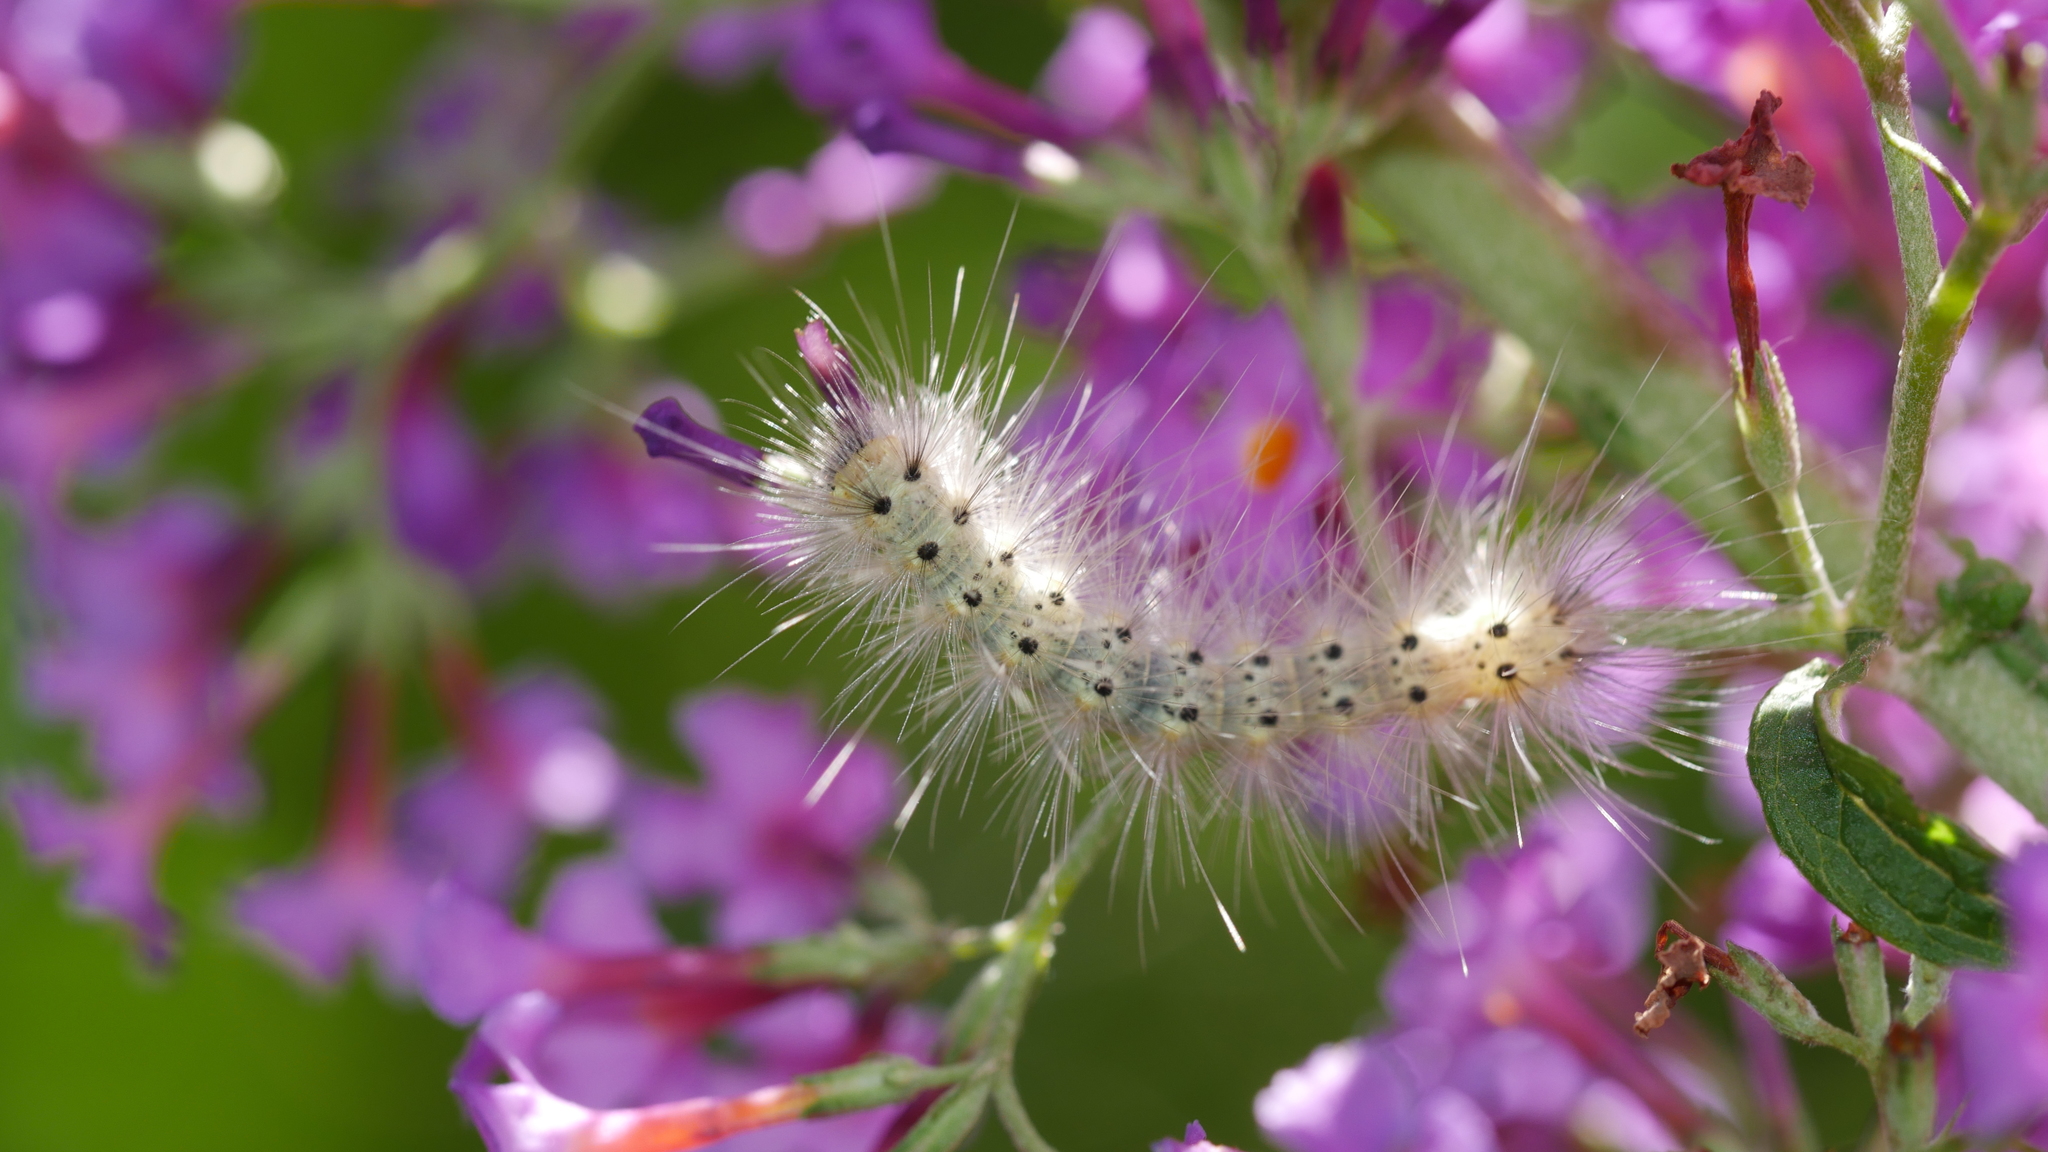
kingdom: Animalia
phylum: Arthropoda
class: Insecta
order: Lepidoptera
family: Erebidae
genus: Hyphantria
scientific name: Hyphantria cunea
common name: American white moth
